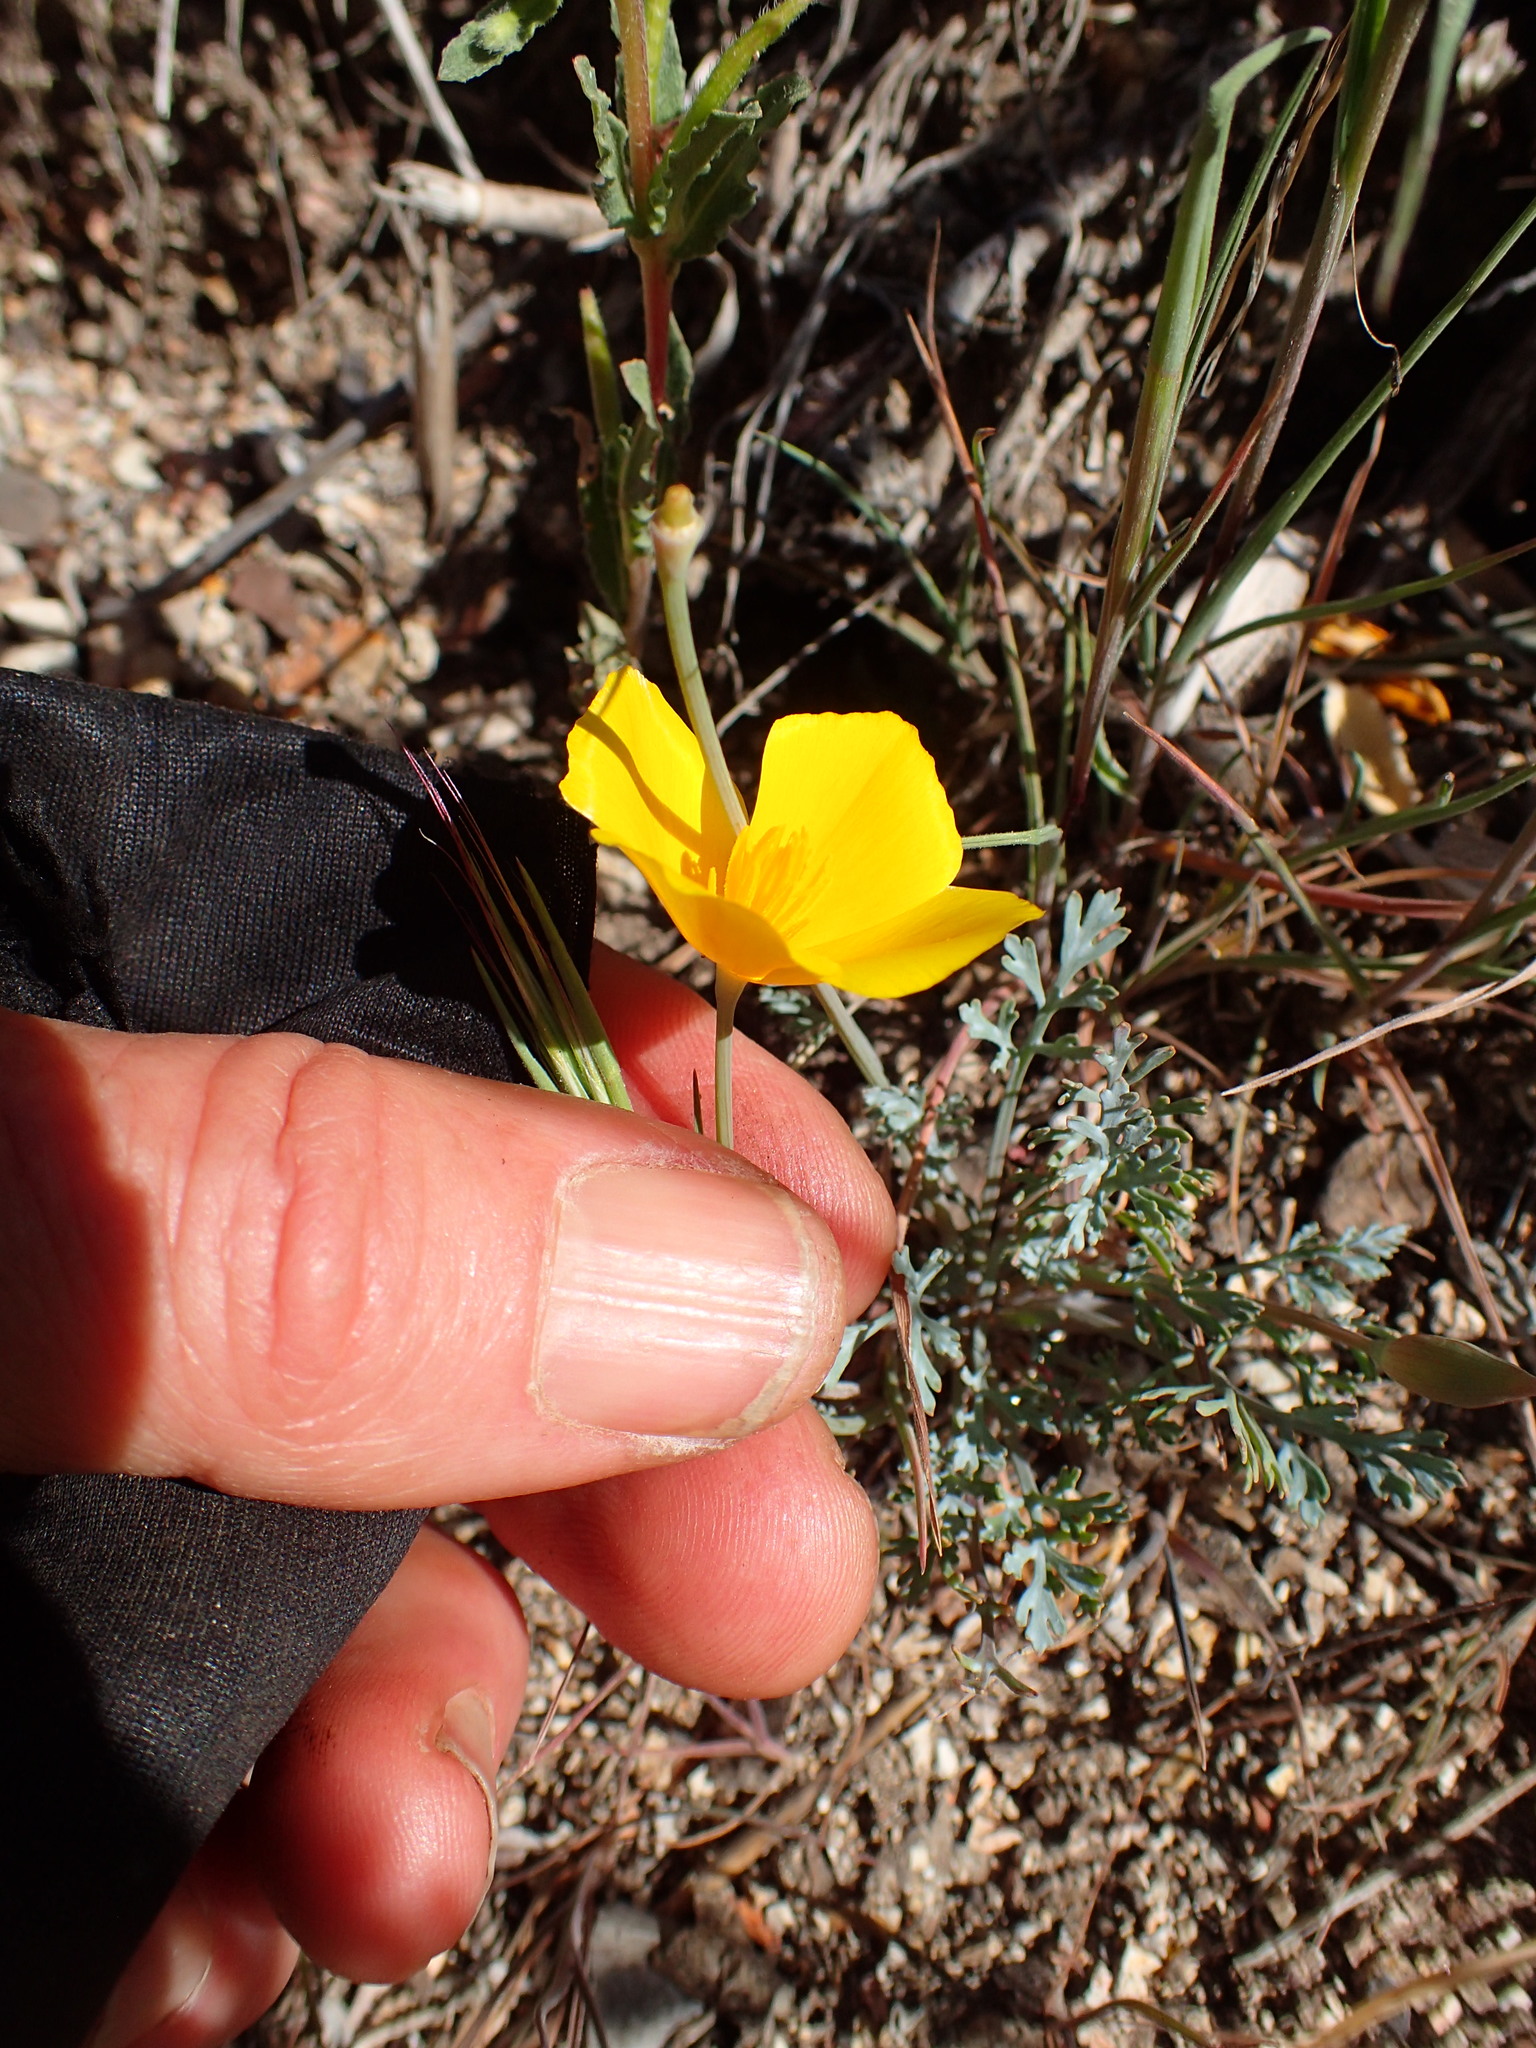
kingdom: Plantae
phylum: Tracheophyta
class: Magnoliopsida
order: Ranunculales
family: Papaveraceae
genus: Eschscholzia
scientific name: Eschscholzia caespitosa
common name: Tufted california-poppy
